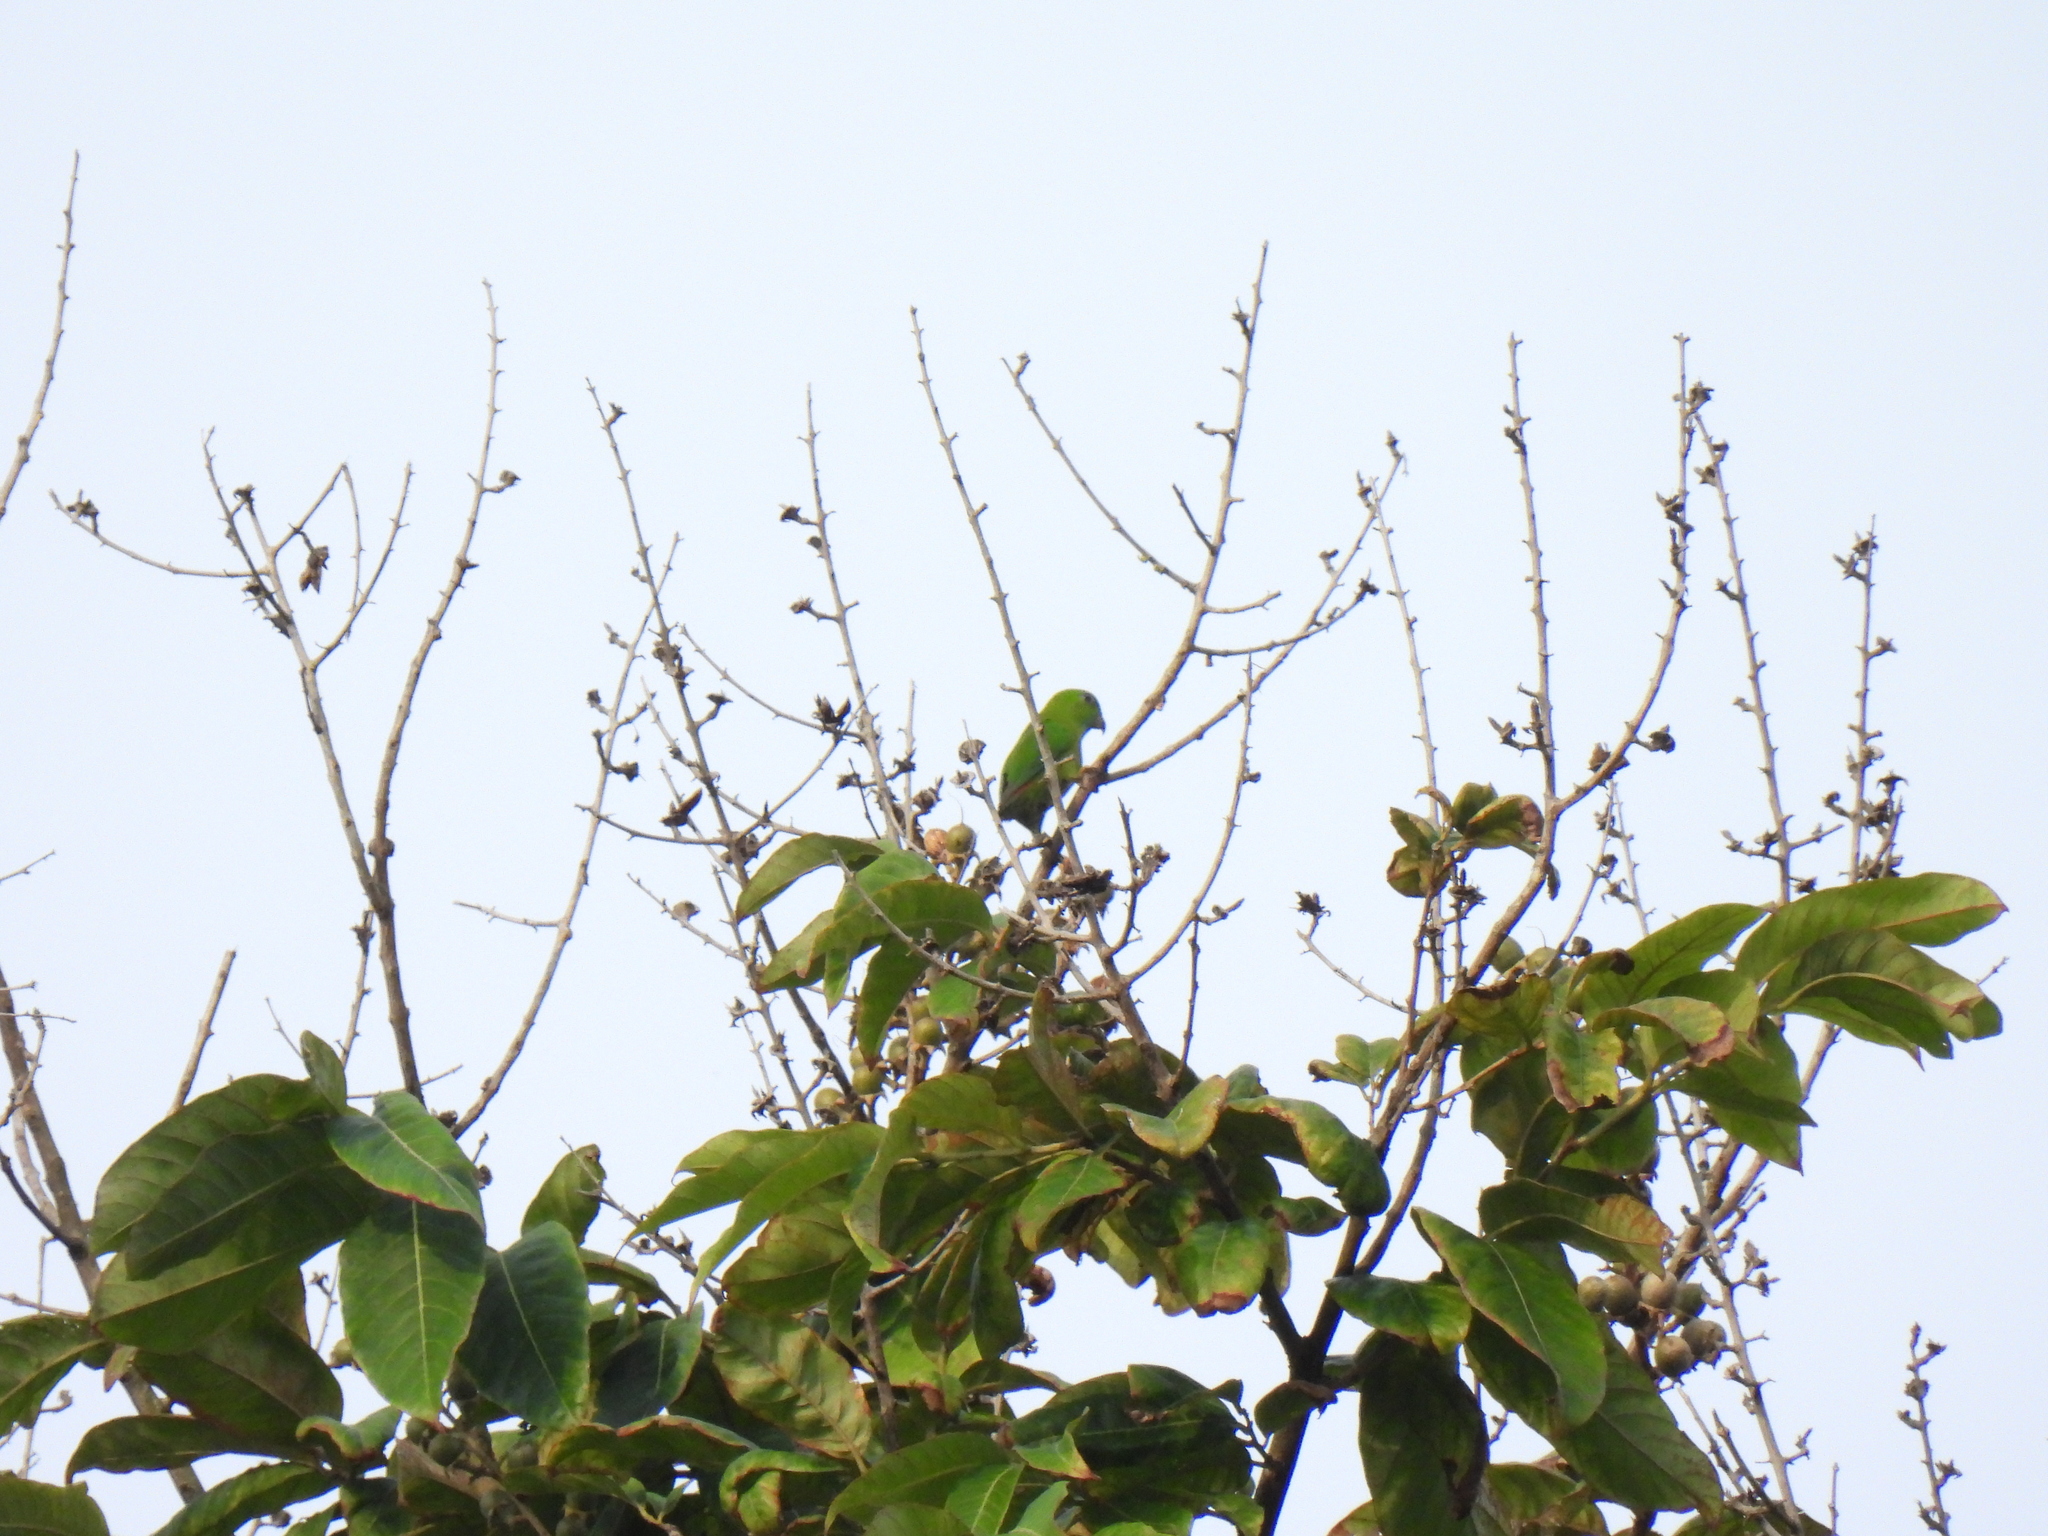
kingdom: Animalia
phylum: Chordata
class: Aves
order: Psittaciformes
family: Psittacidae
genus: Loriculus
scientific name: Loriculus galgulus
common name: Blue-crowned hanging parrot
